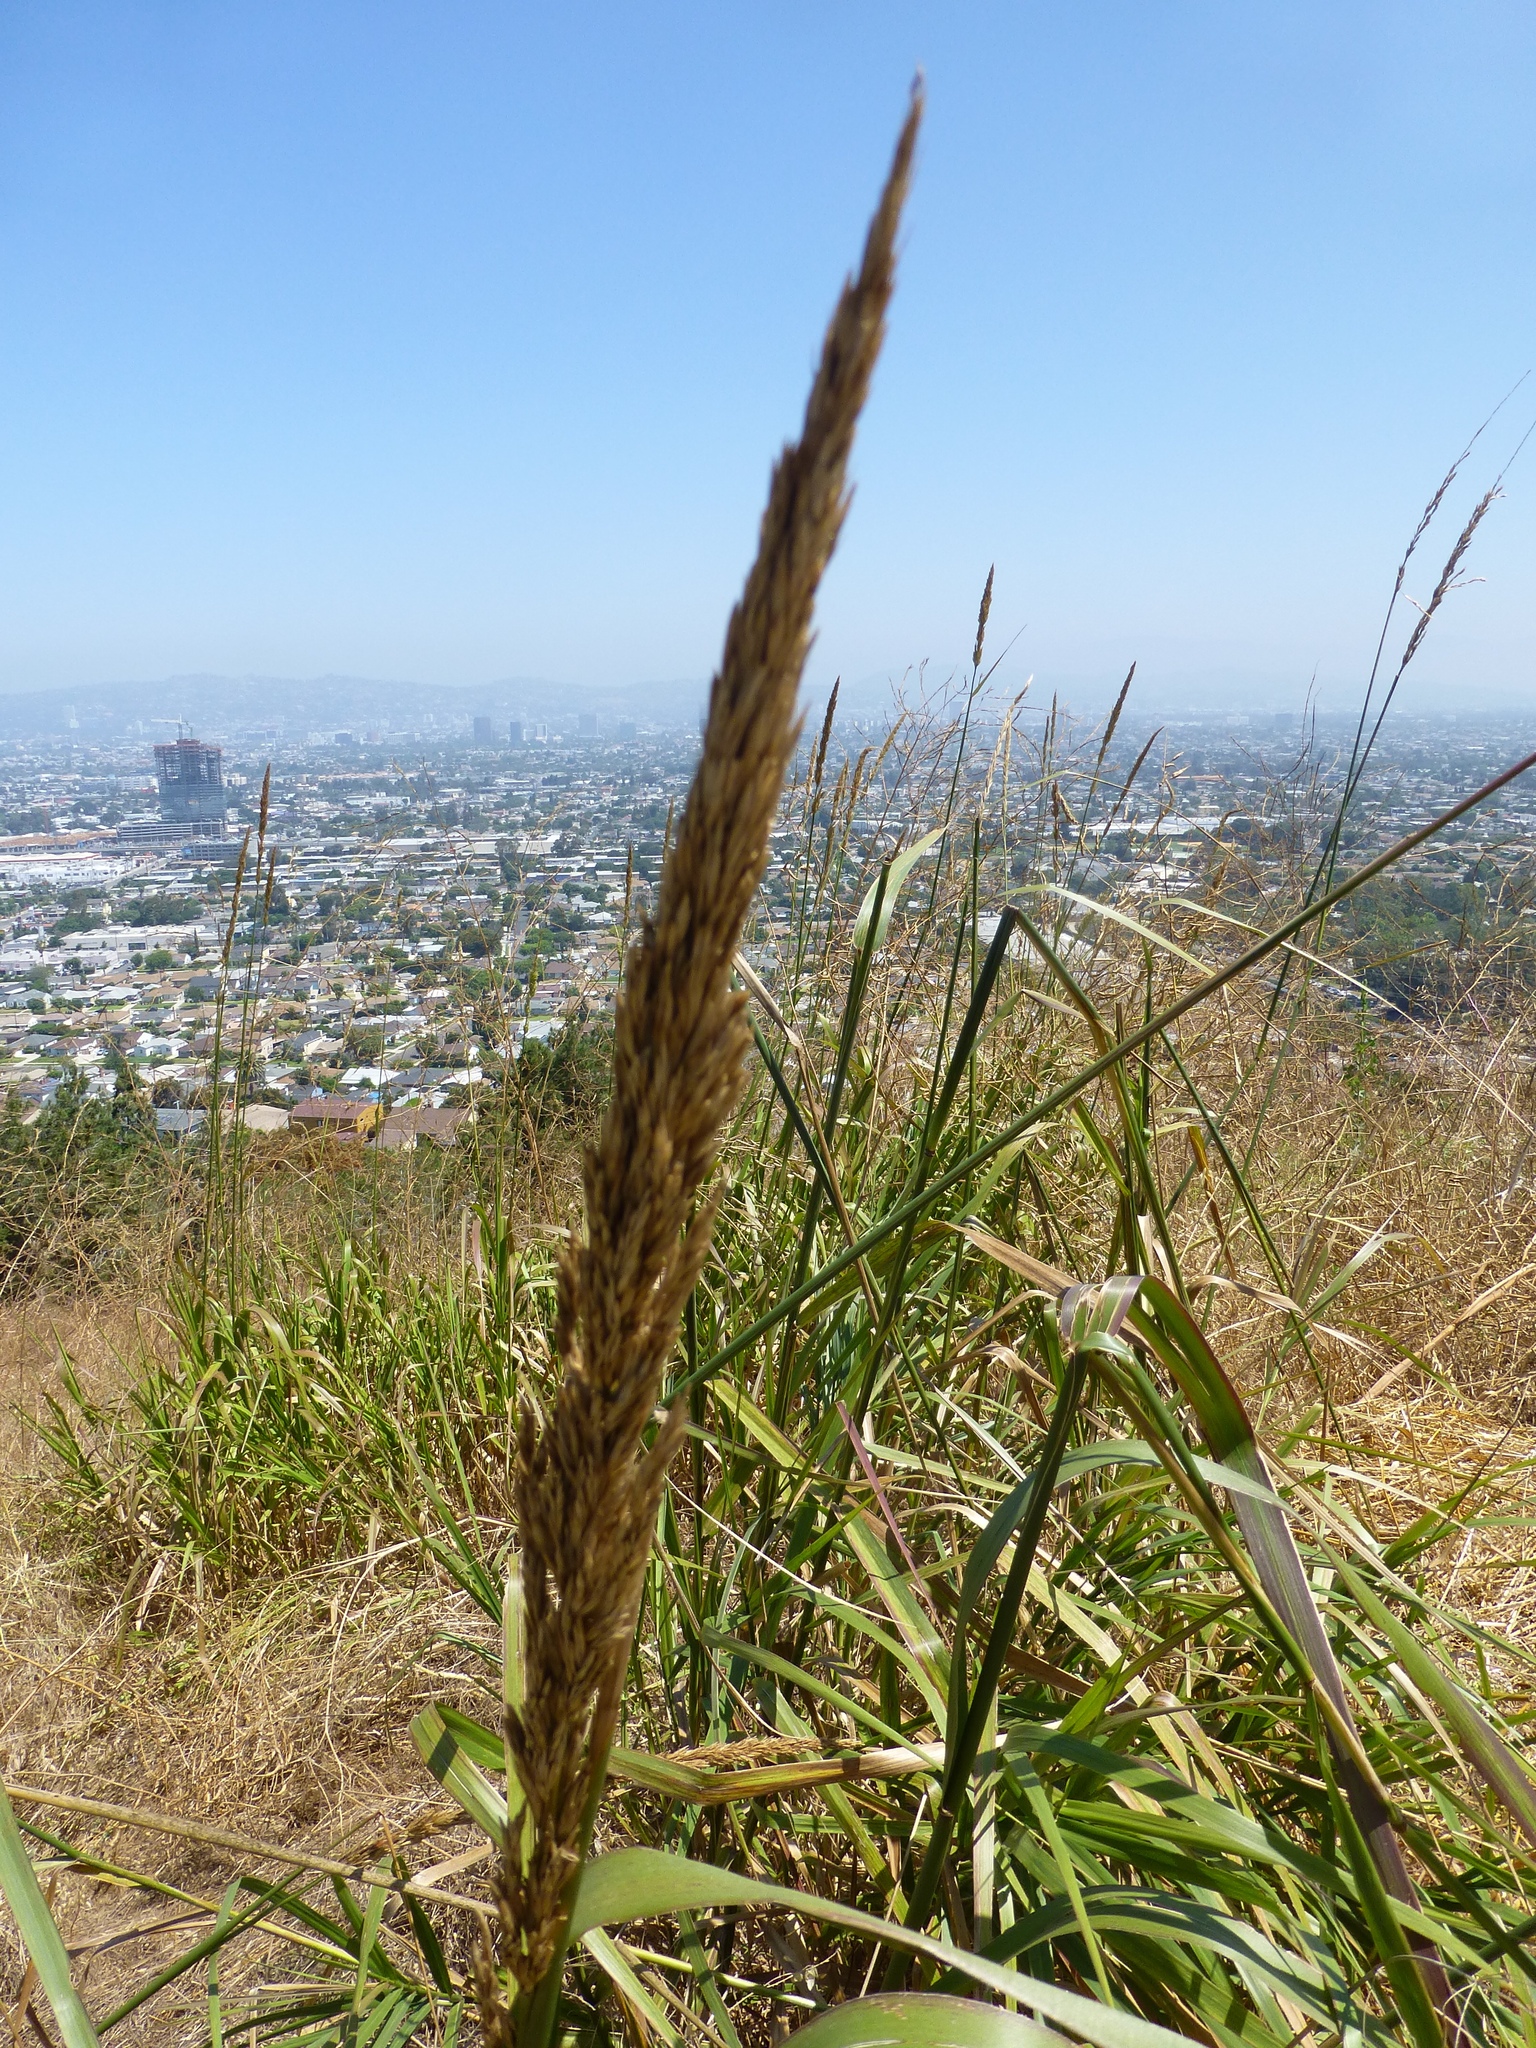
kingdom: Plantae
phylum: Tracheophyta
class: Liliopsida
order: Poales
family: Poaceae
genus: Leymus
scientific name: Leymus condensatus
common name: Giant wild rye
